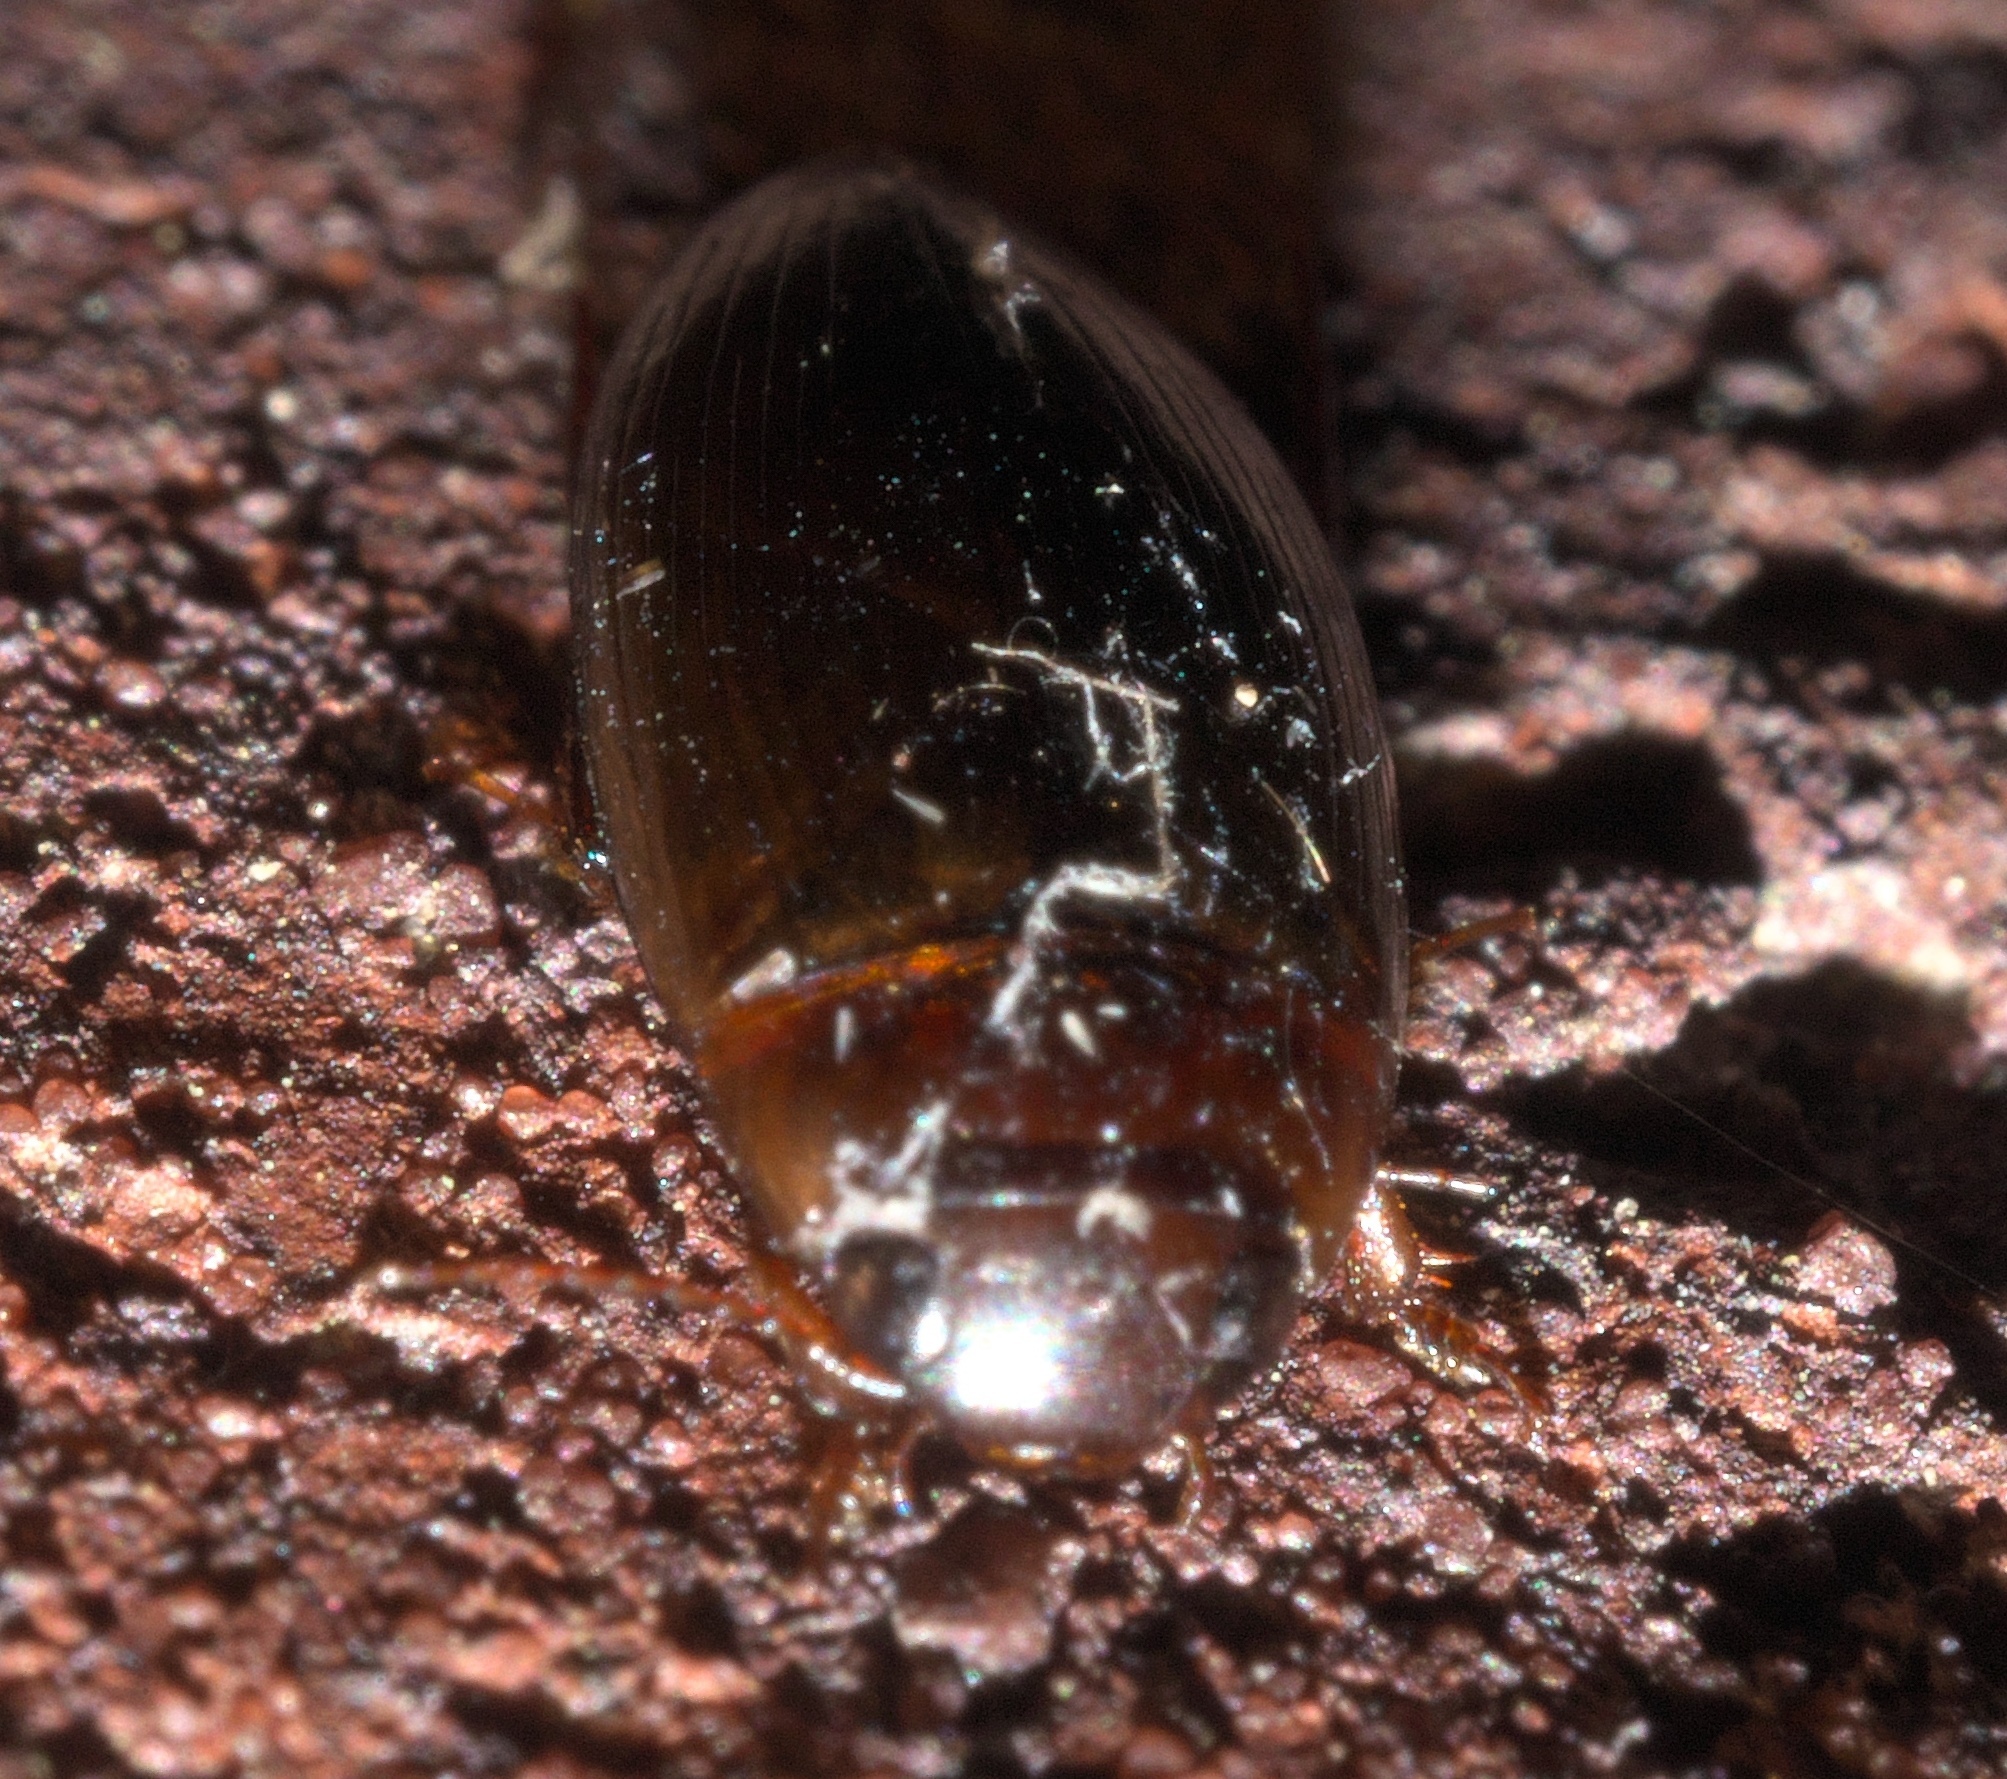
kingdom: Animalia
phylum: Arthropoda
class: Insecta
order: Coleoptera
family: Dytiscidae
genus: Copelatus
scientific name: Copelatus chevrolati
